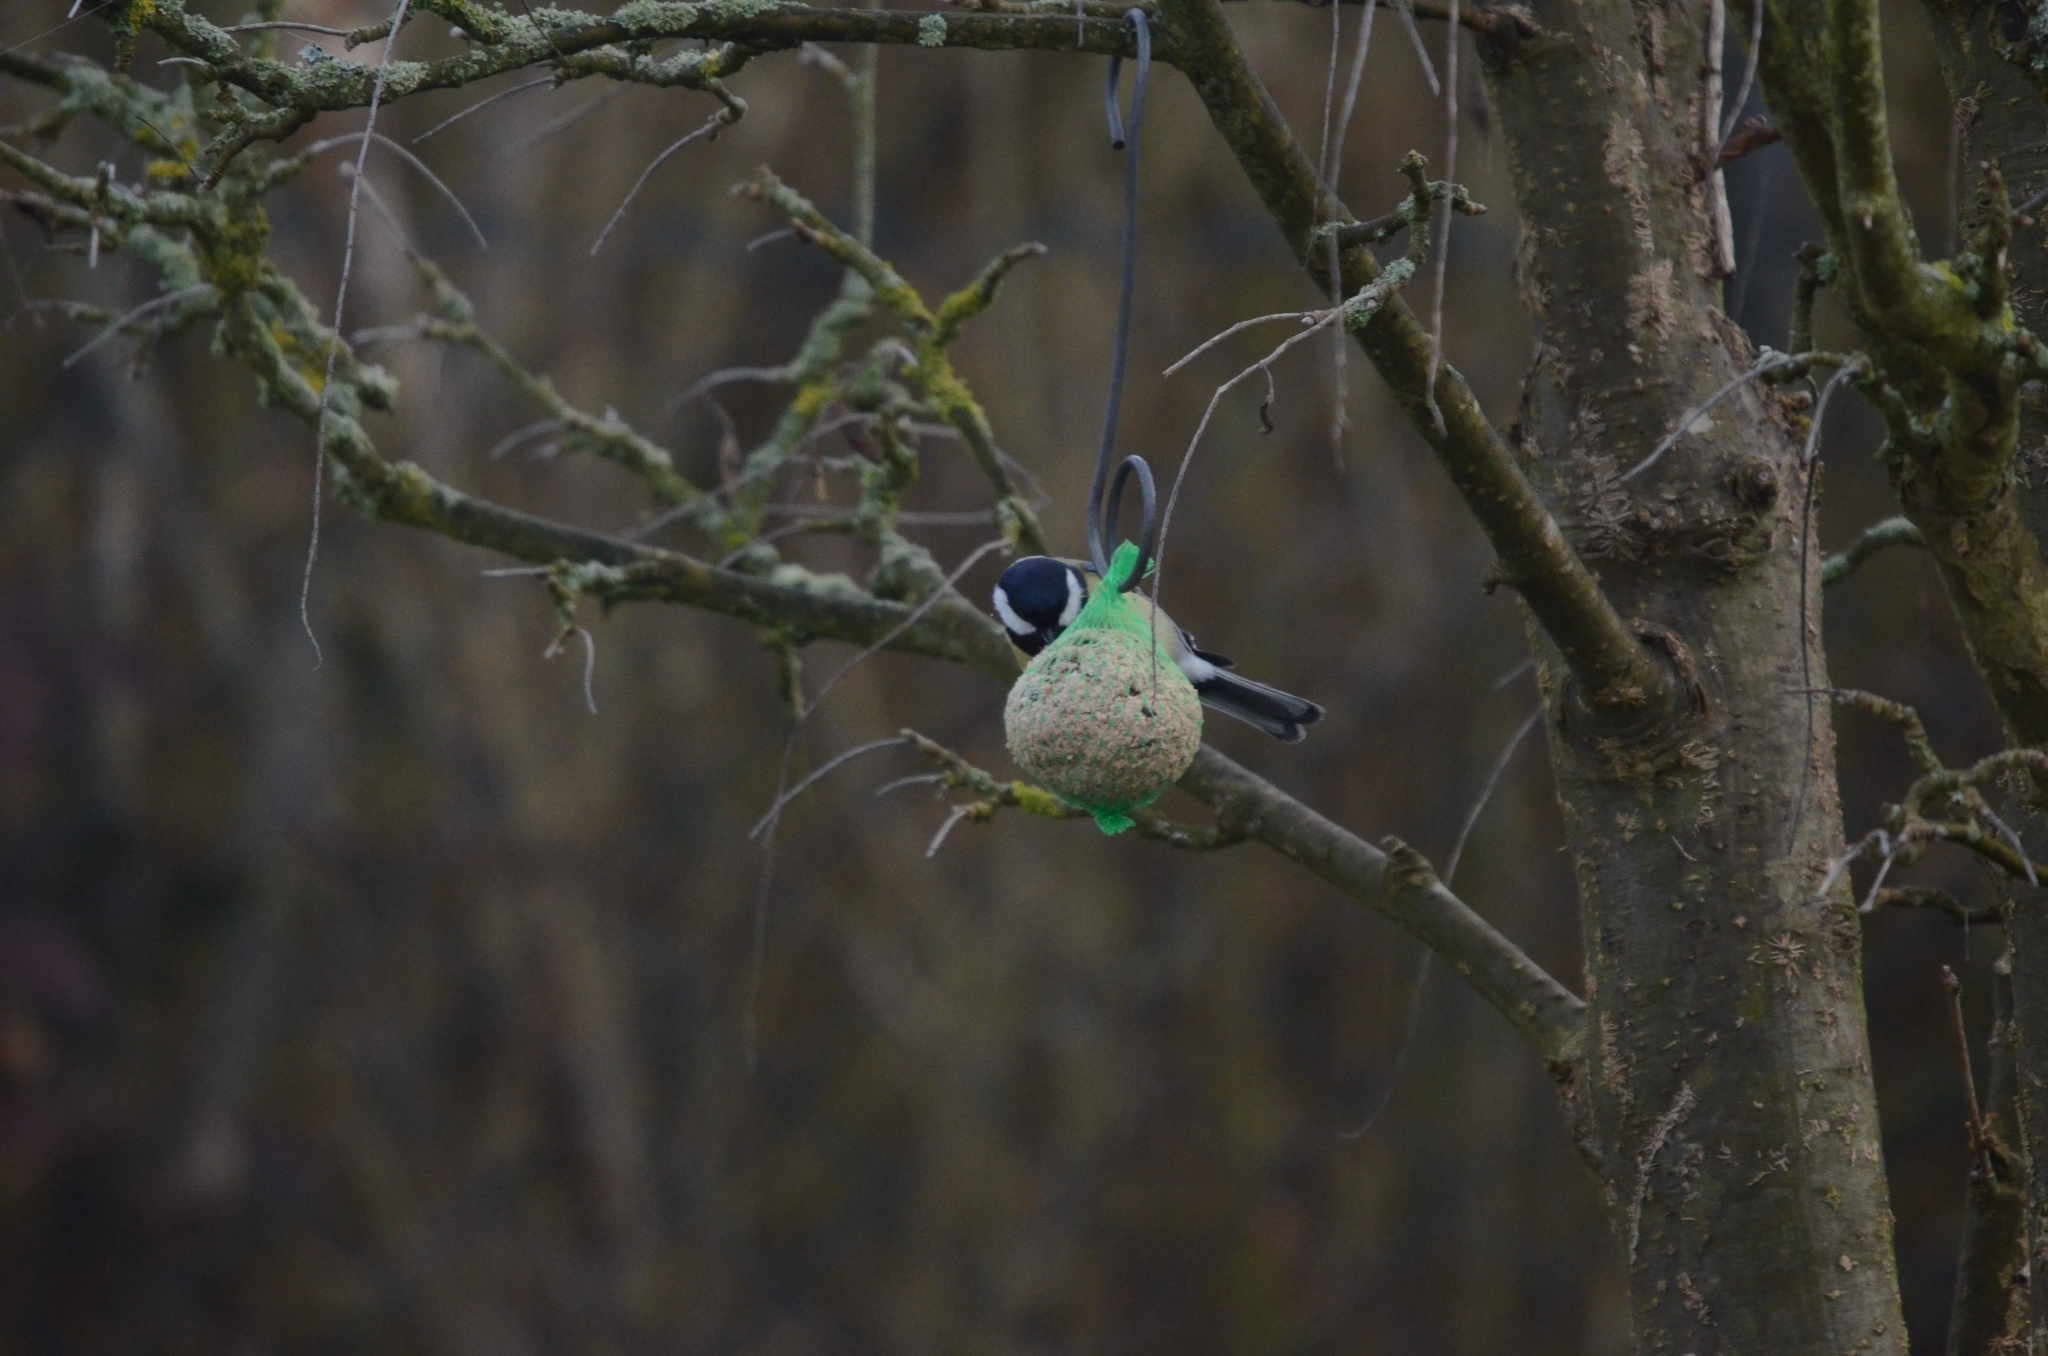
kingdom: Animalia
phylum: Chordata
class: Aves
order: Passeriformes
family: Paridae
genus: Parus
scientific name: Parus major
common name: Great tit
